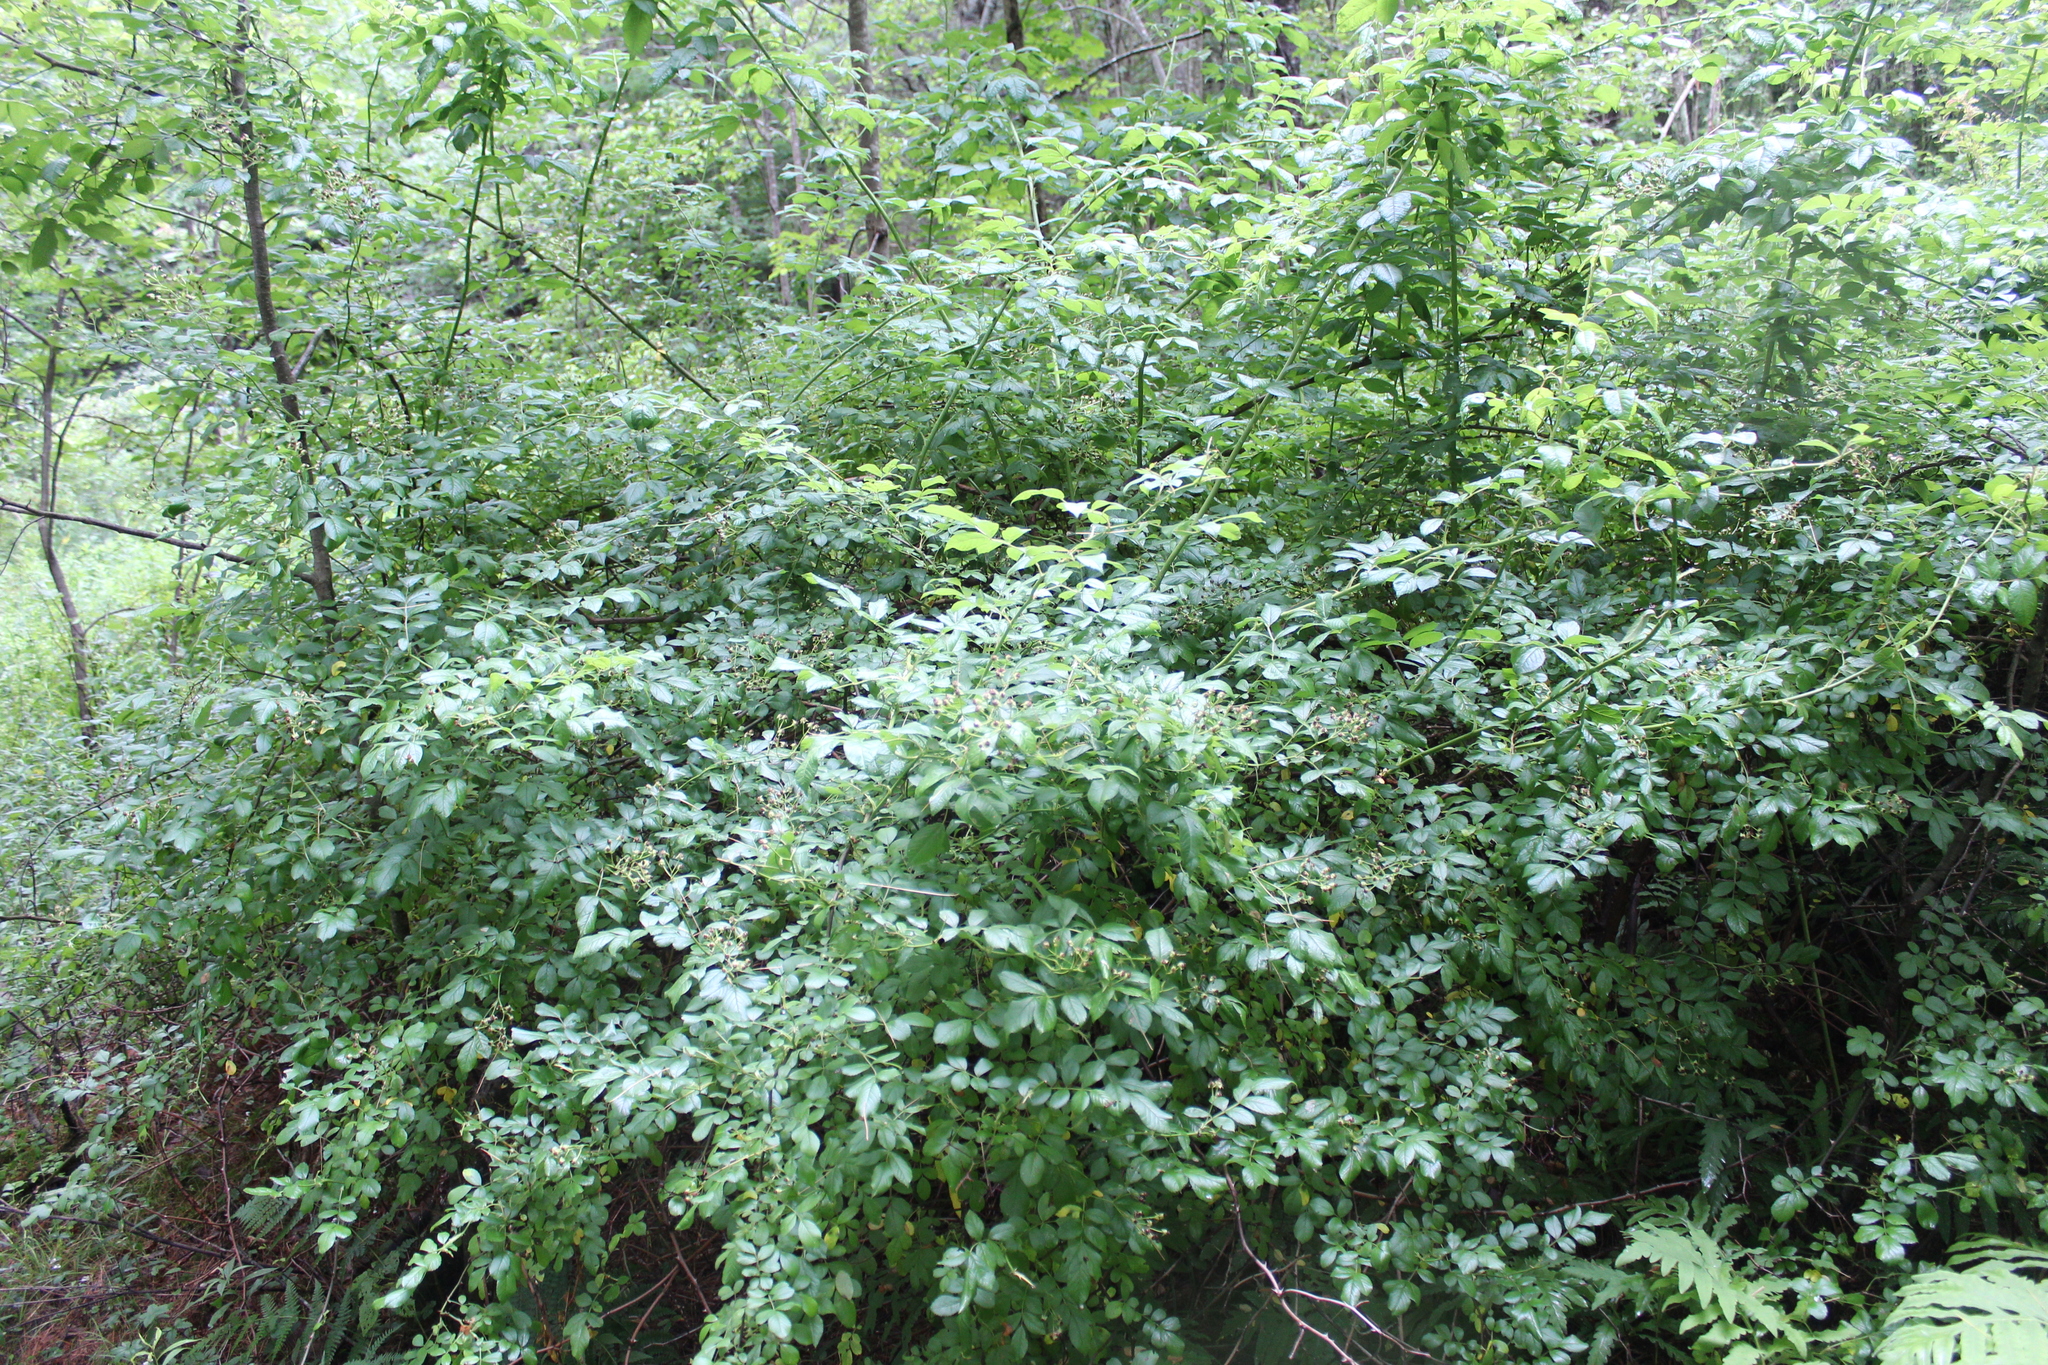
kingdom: Plantae
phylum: Tracheophyta
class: Magnoliopsida
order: Rosales
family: Rosaceae
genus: Rosa
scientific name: Rosa multiflora
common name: Multiflora rose
